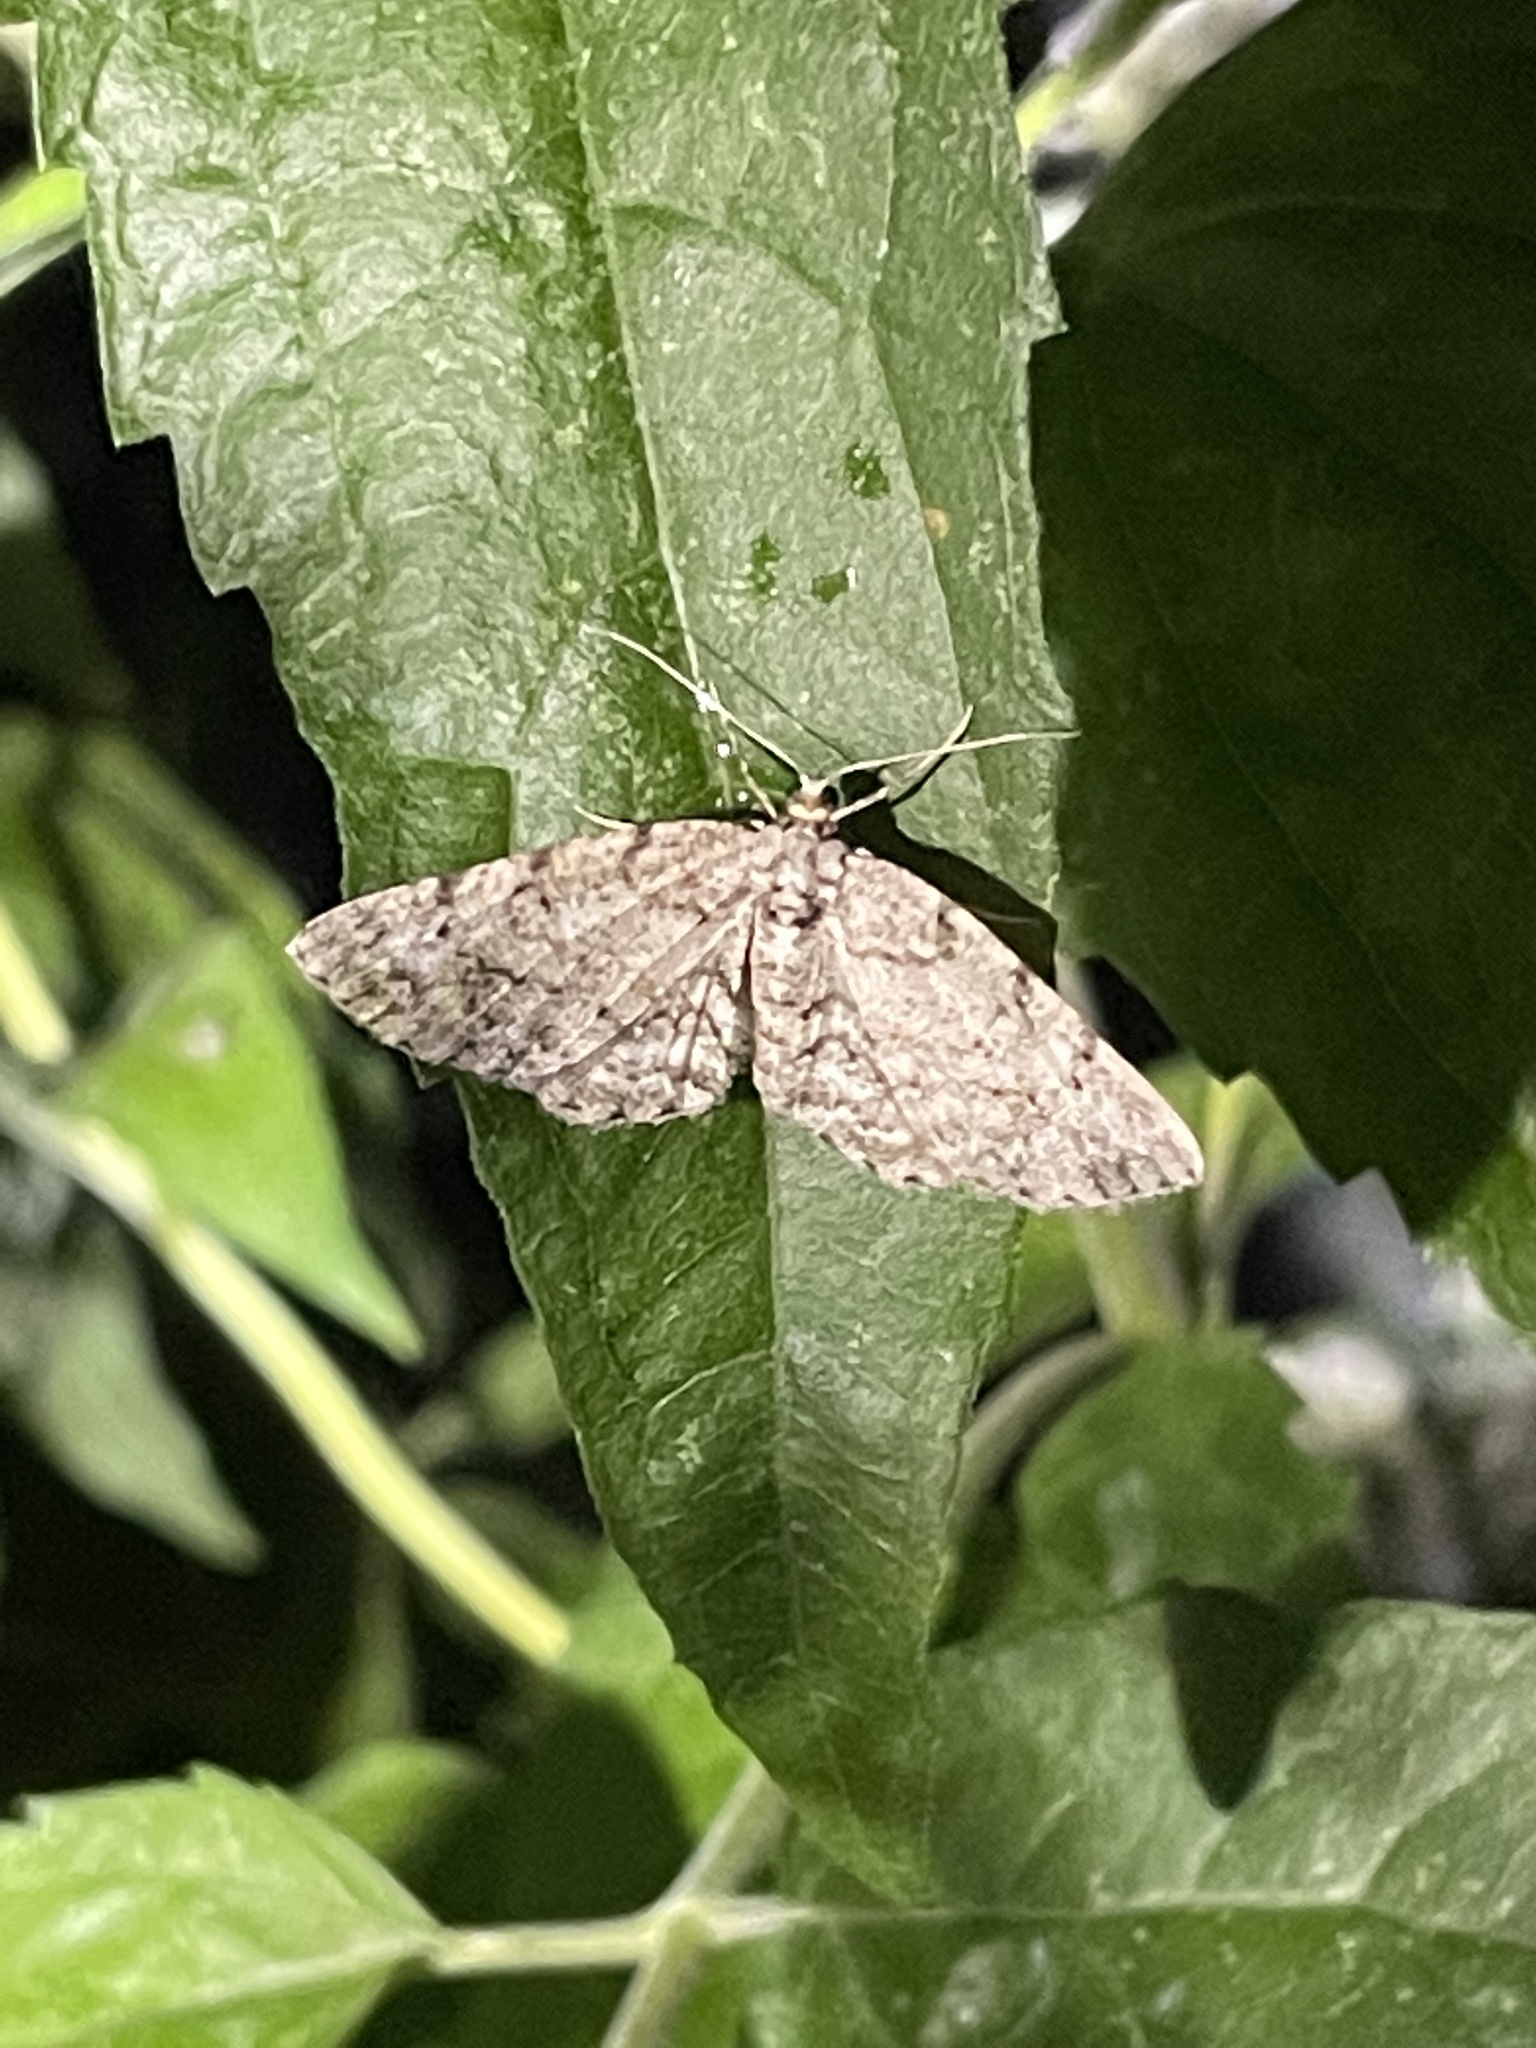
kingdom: Animalia
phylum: Arthropoda
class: Insecta
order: Lepidoptera
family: Geometridae
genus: Protoboarmia
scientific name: Protoboarmia porcelaria
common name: Porcelain gray
